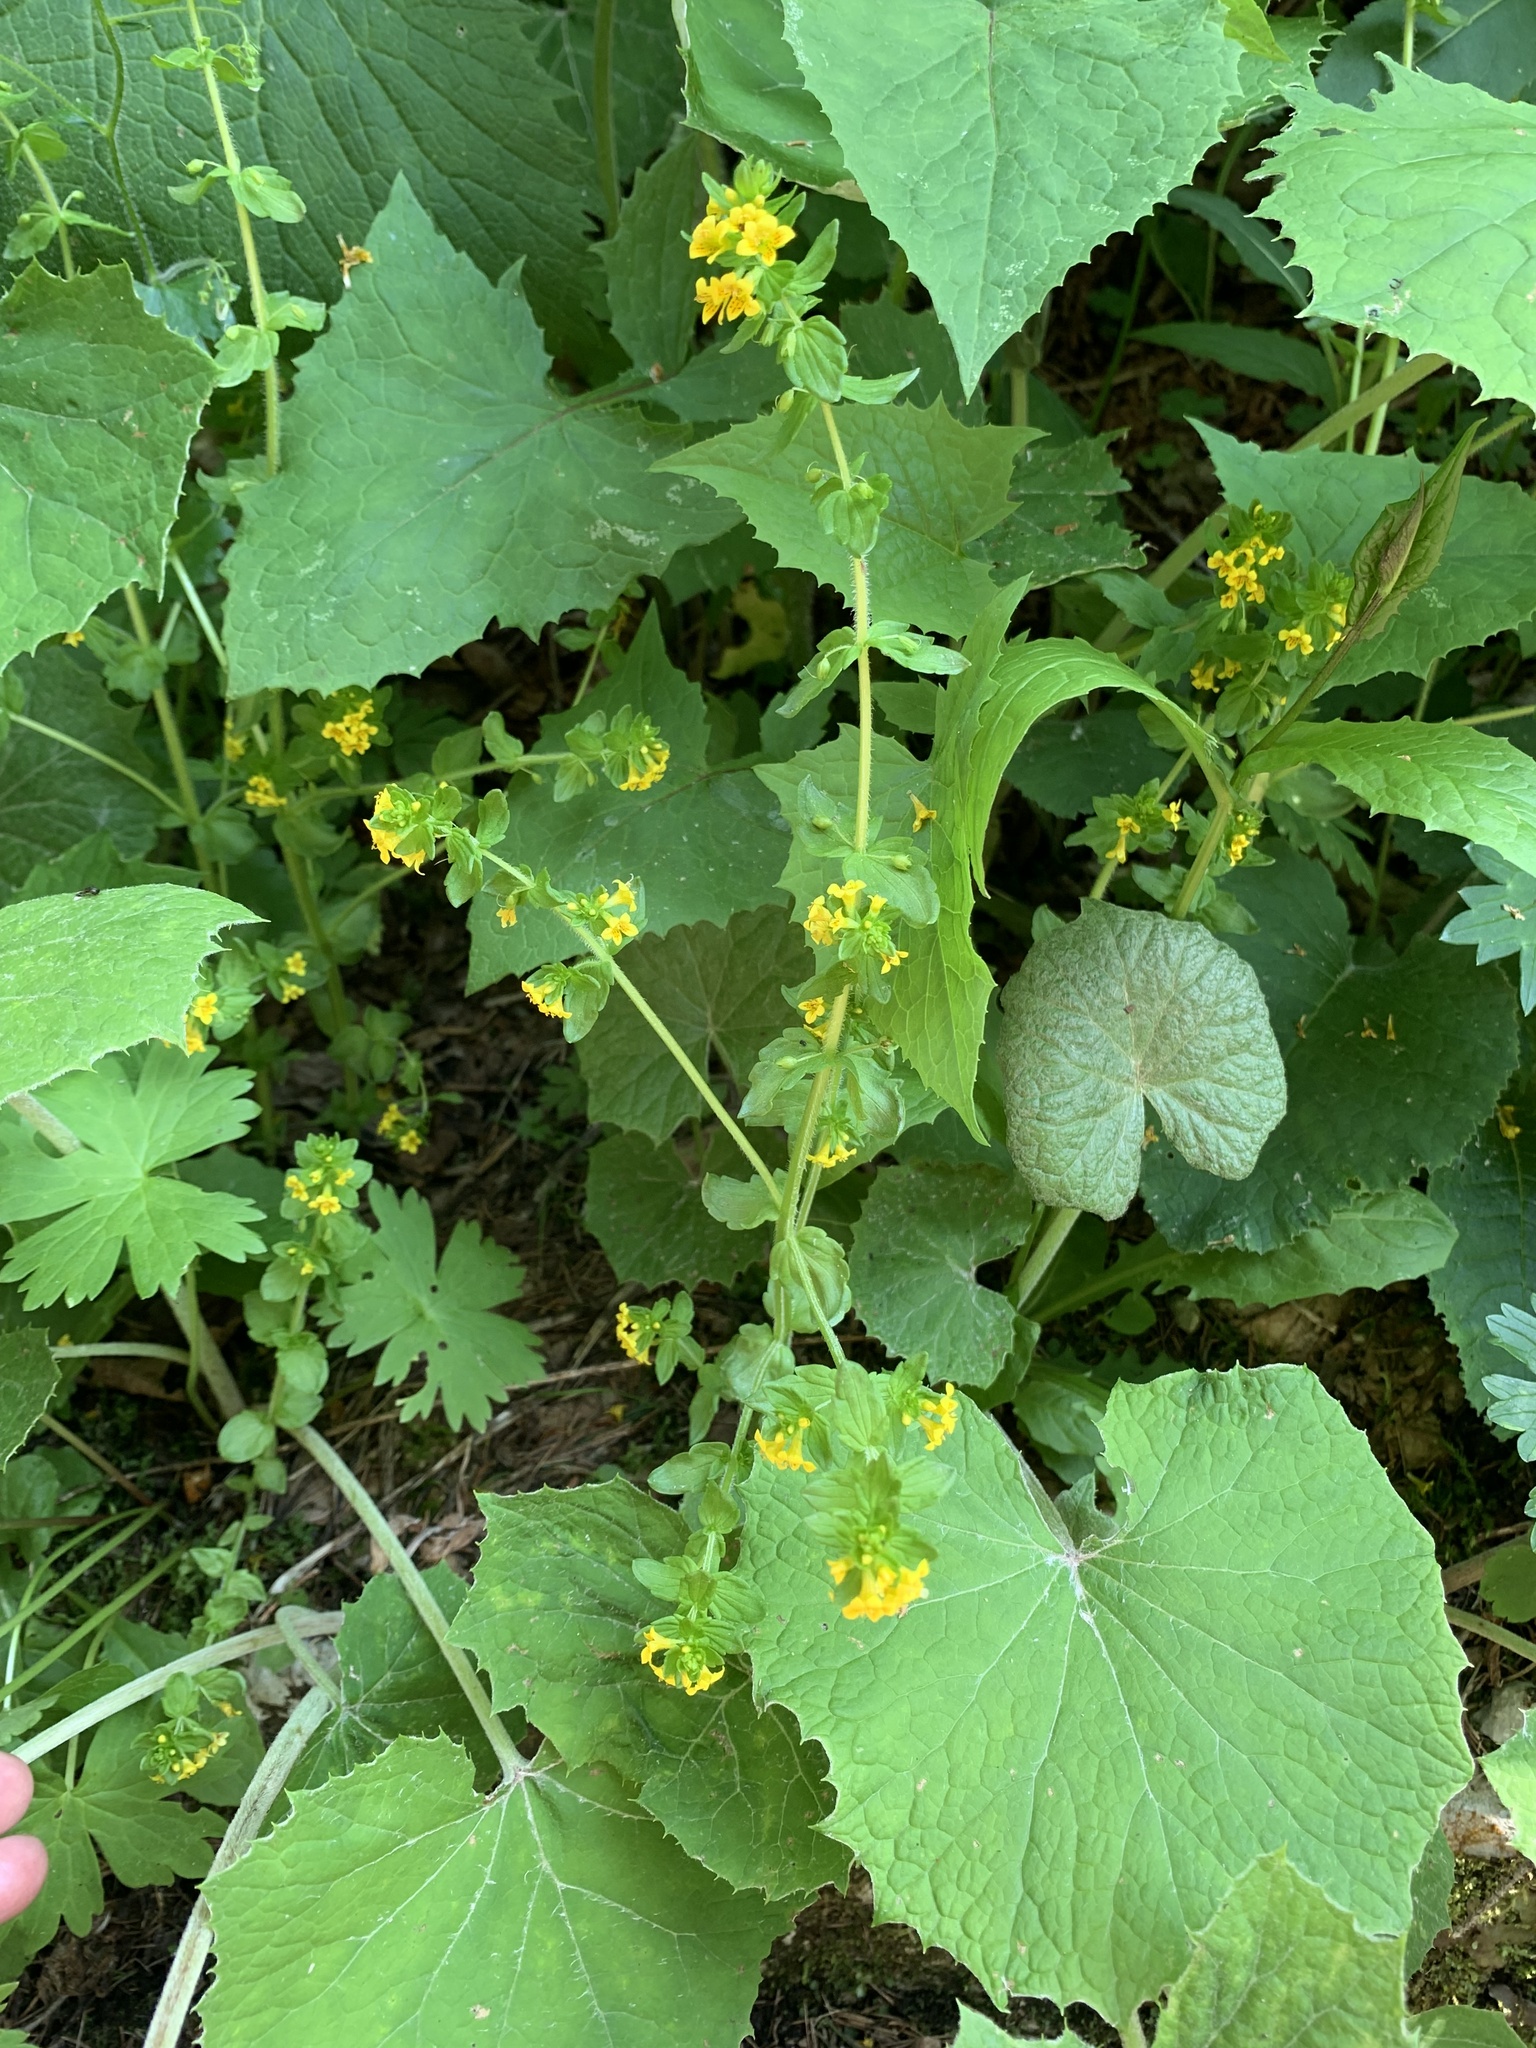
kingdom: Plantae
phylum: Tracheophyta
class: Magnoliopsida
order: Lamiales
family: Orobanchaceae
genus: Tozzia
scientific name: Tozzia alpina
